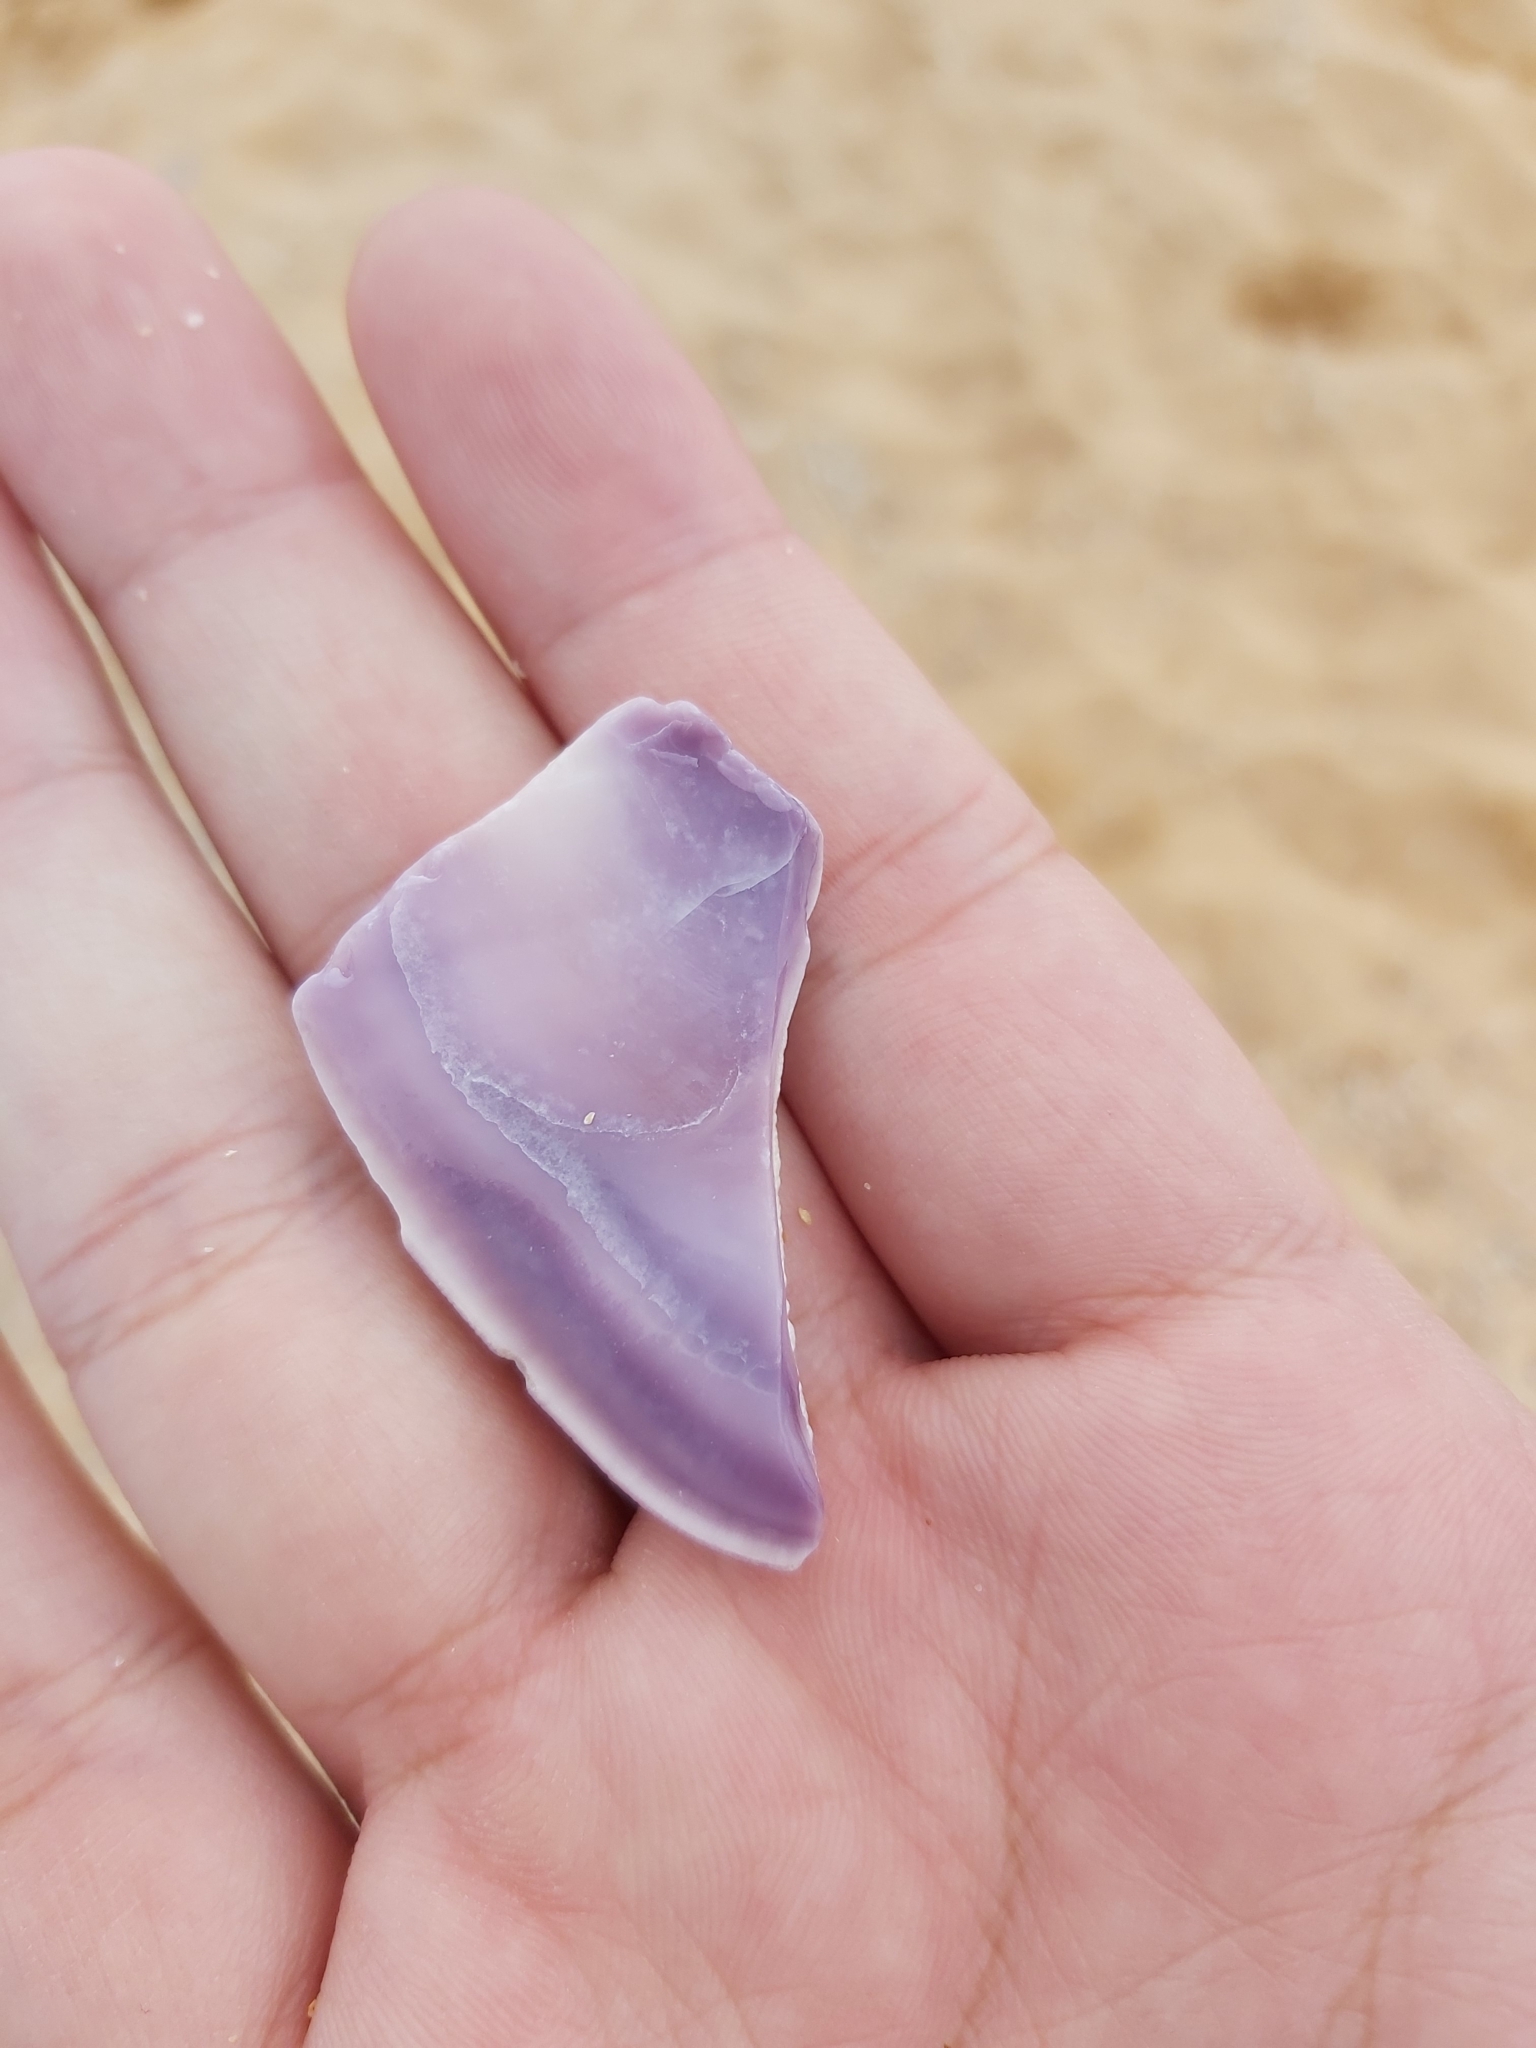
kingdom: Animalia
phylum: Mollusca
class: Bivalvia
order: Cardiida
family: Donacidae
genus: Latona
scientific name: Latona deltoides
